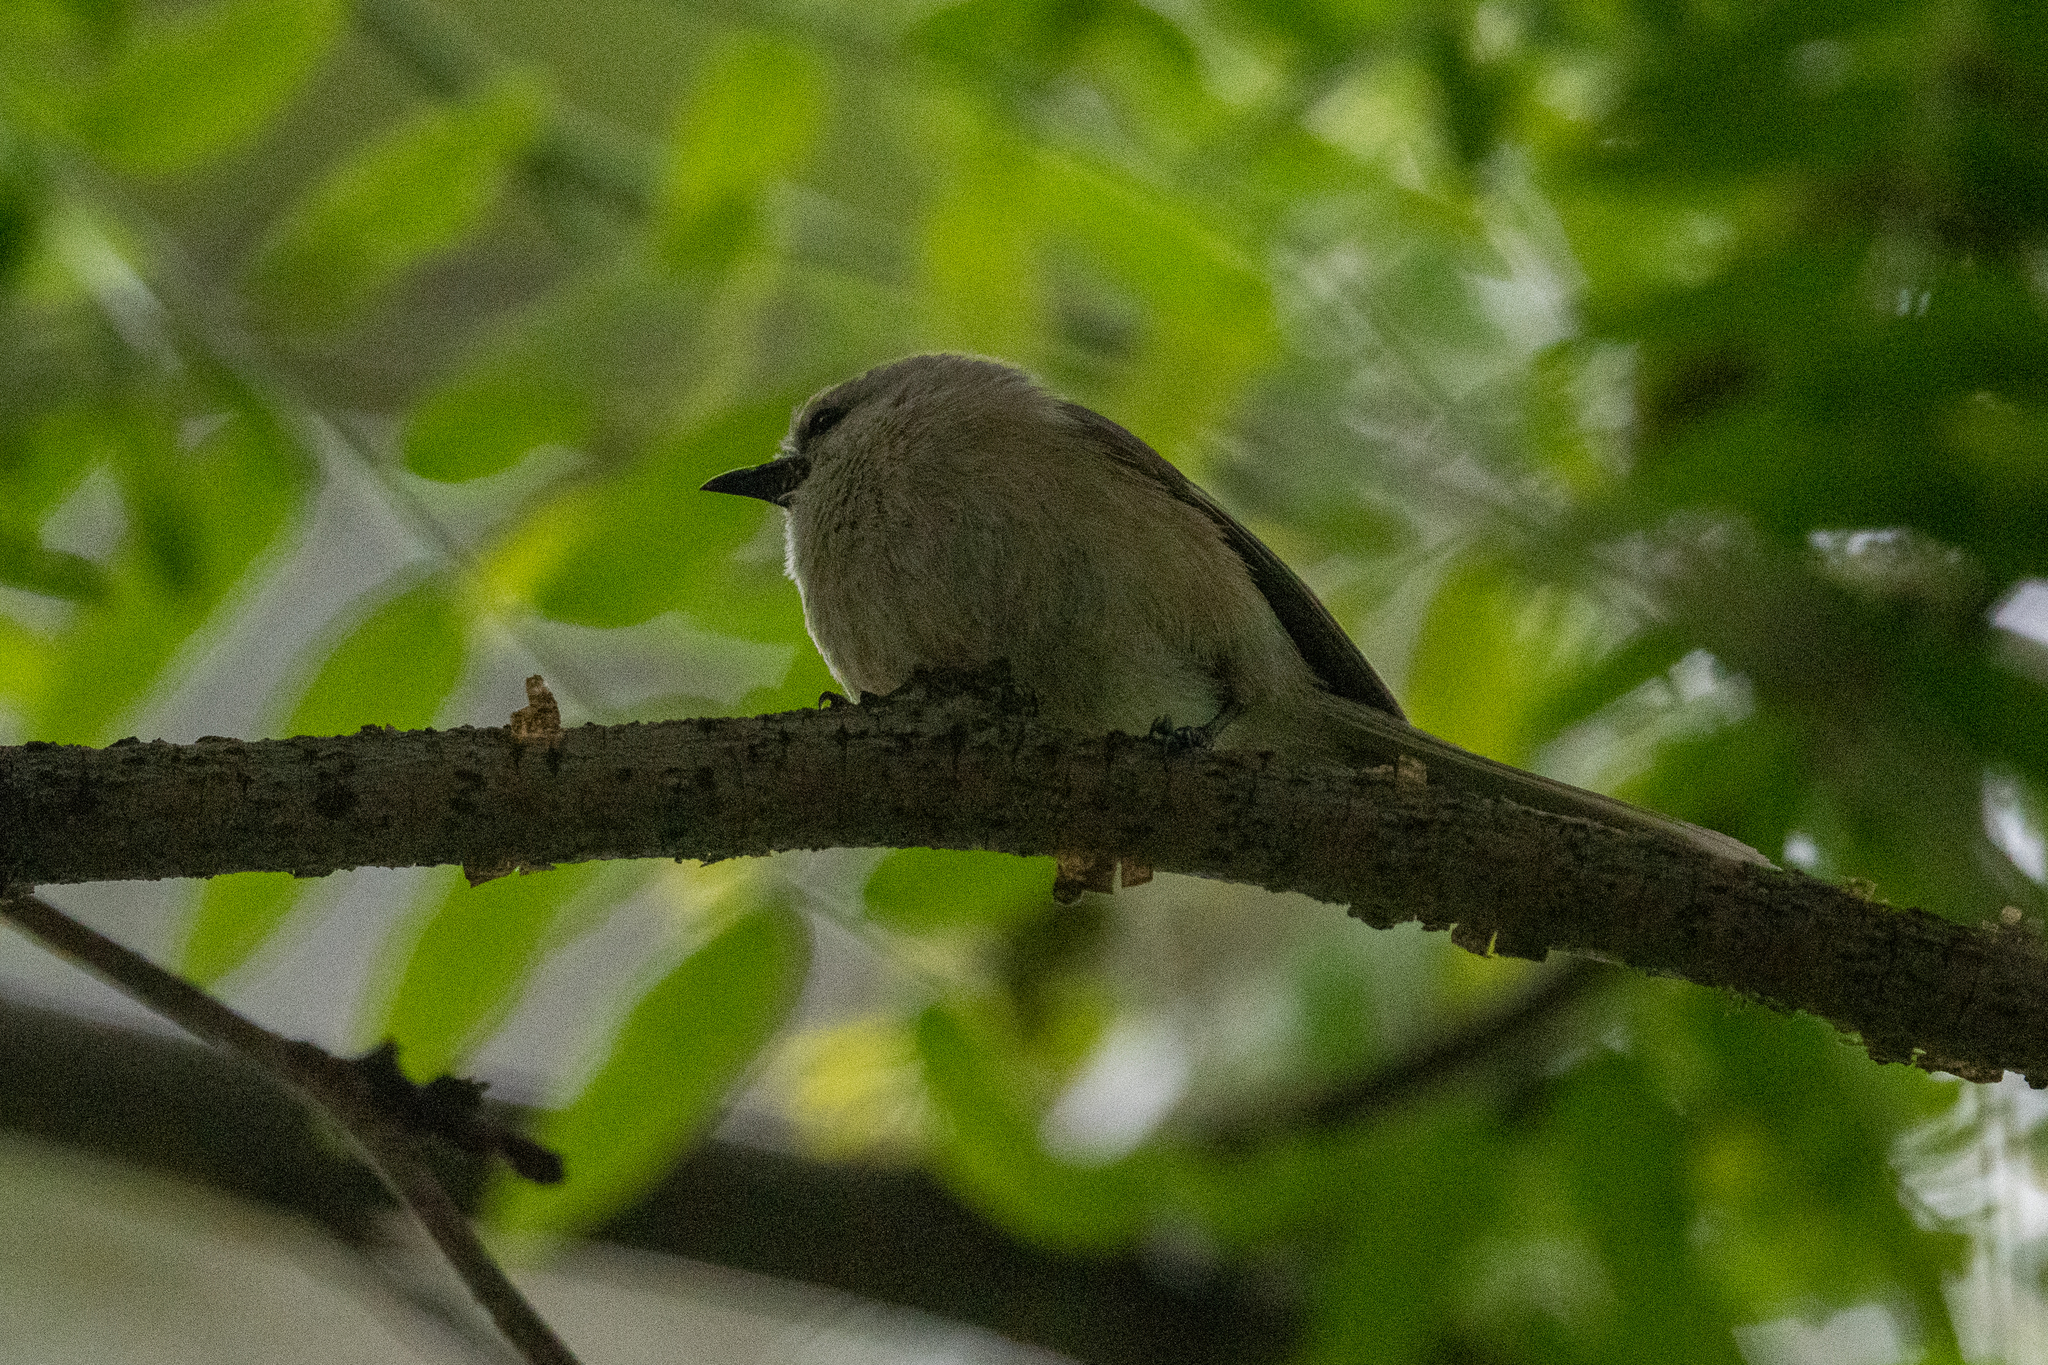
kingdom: Animalia
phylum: Chordata
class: Aves
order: Passeriformes
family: Aegithalidae
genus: Psaltriparus
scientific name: Psaltriparus minimus
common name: American bushtit
